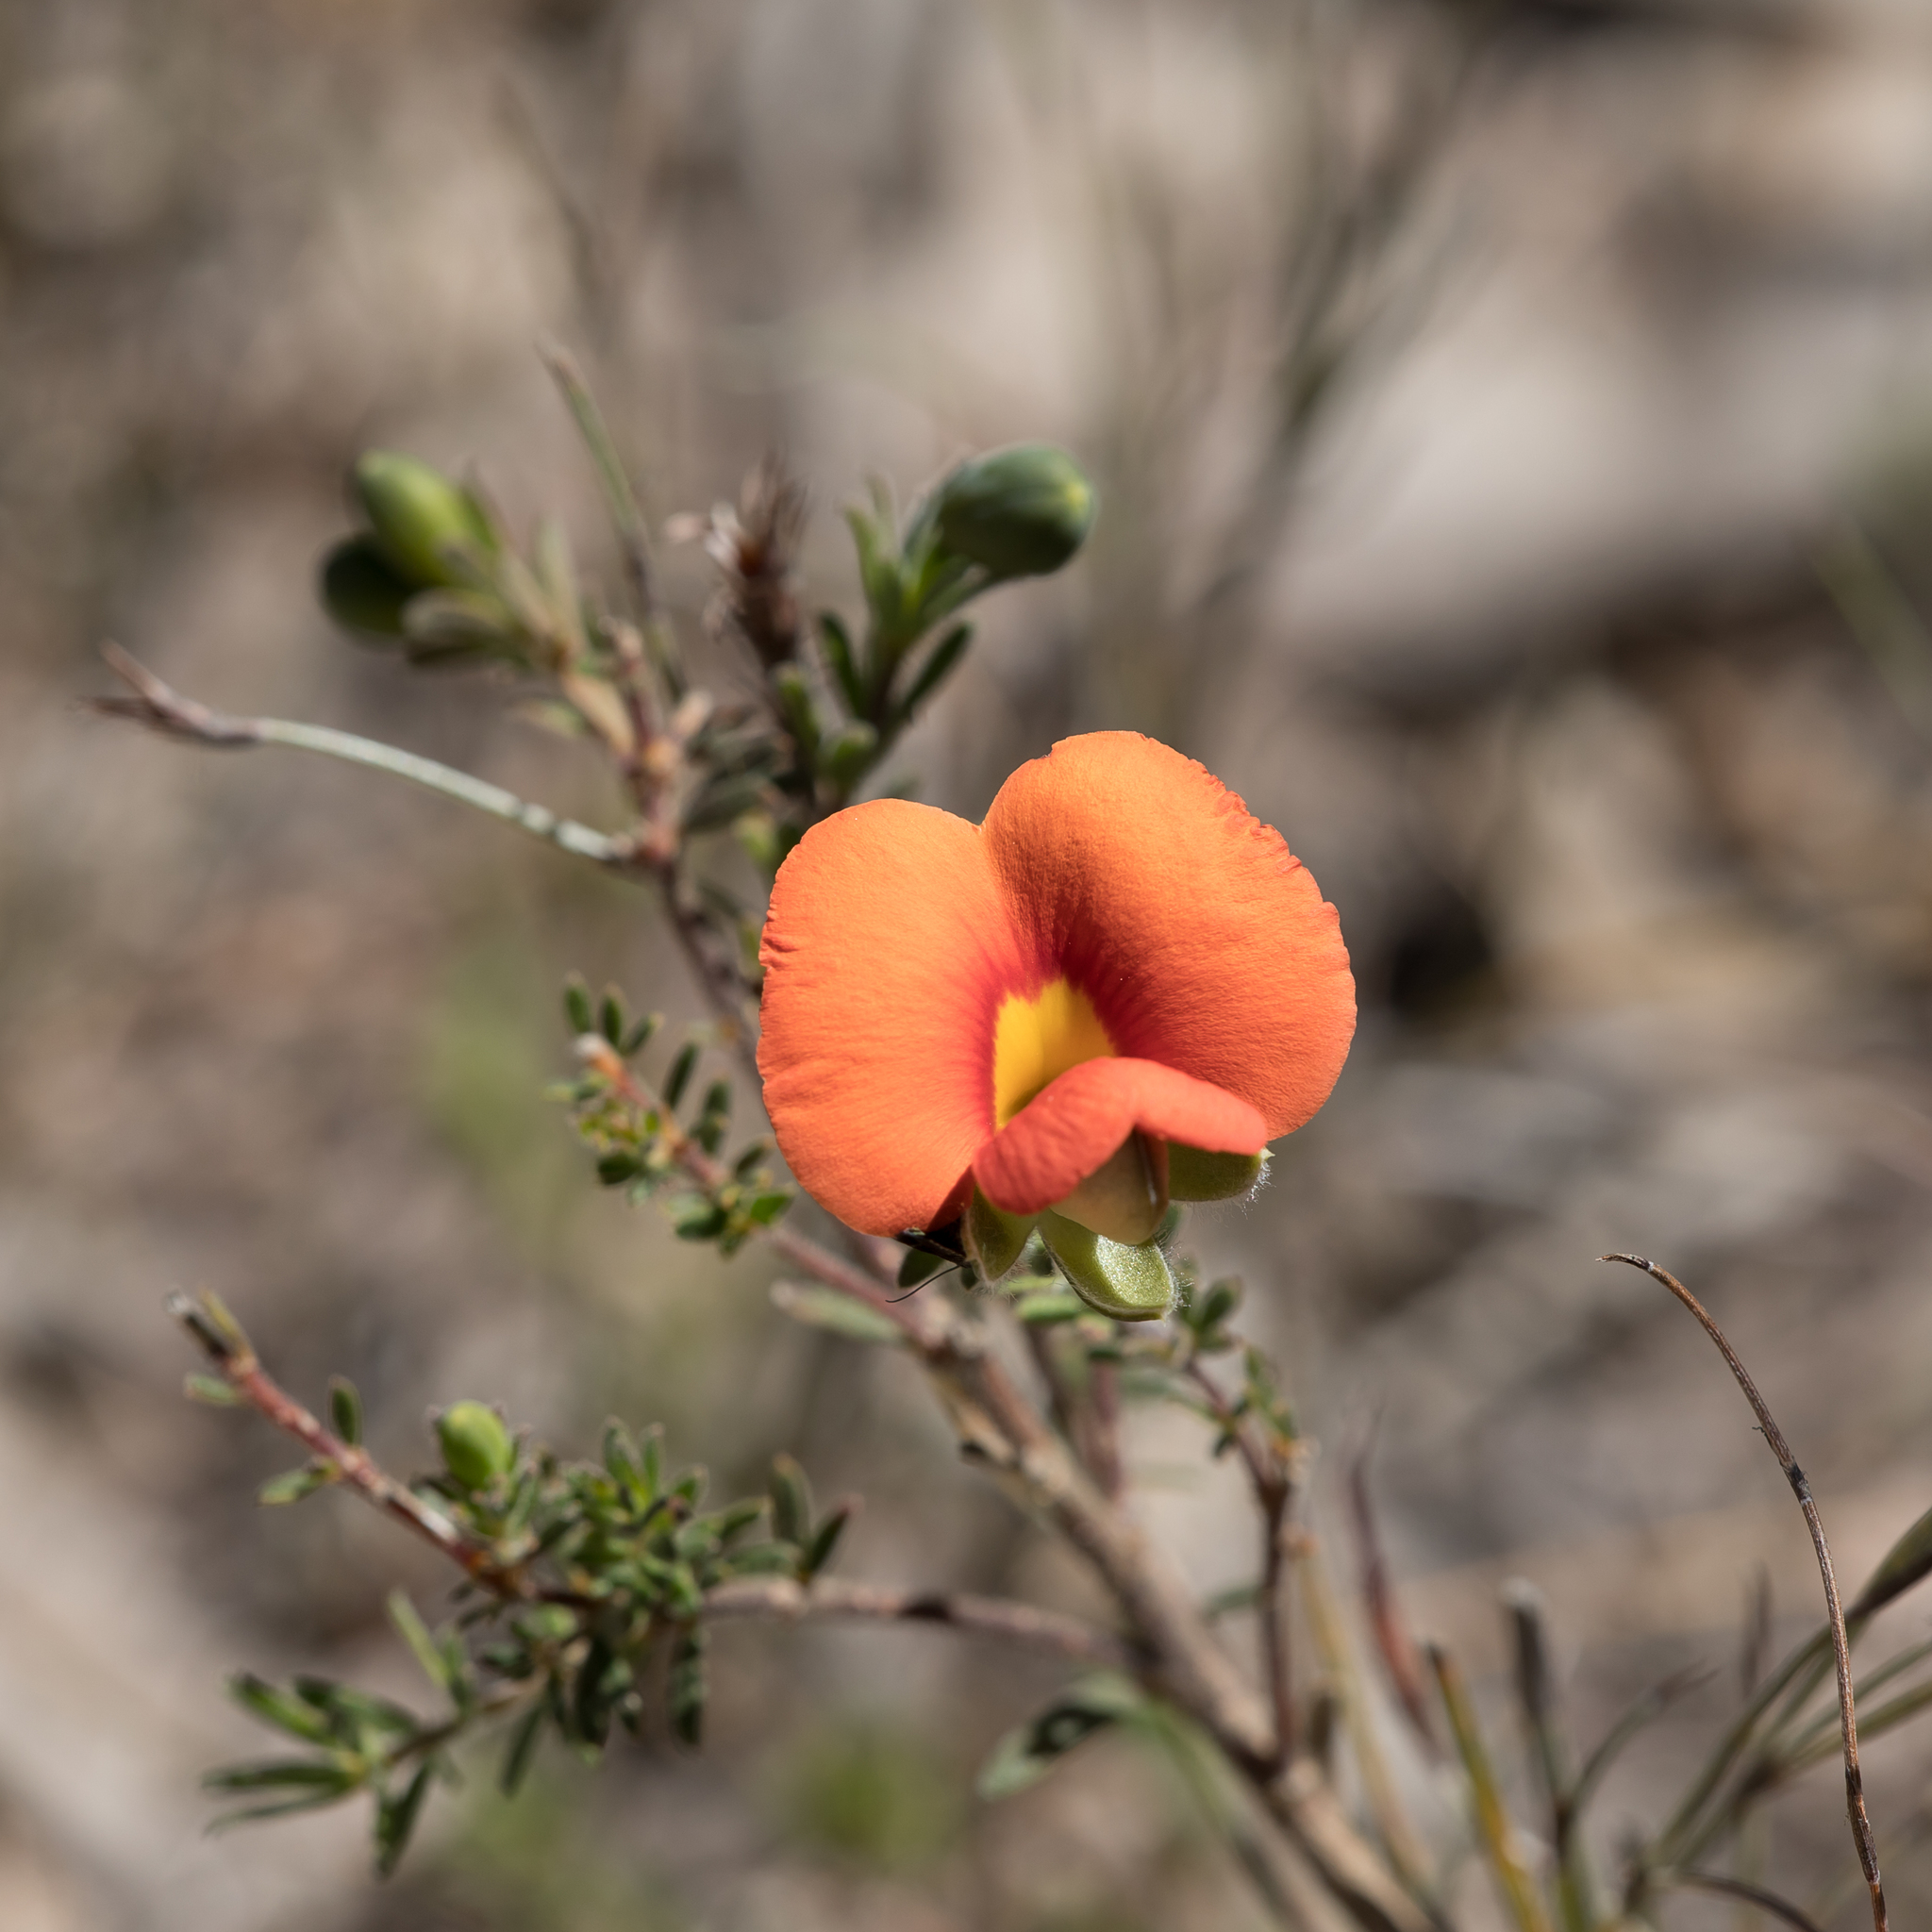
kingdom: Plantae
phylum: Tracheophyta
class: Magnoliopsida
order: Fabales
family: Fabaceae
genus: Gompholobium
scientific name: Gompholobium ecostatum
